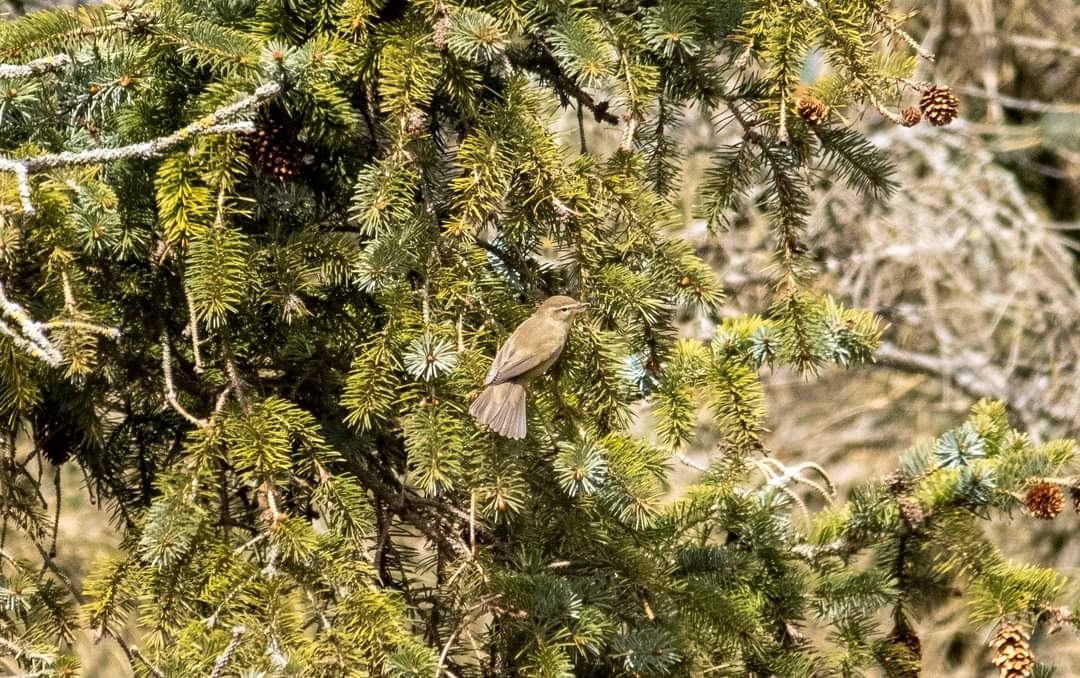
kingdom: Animalia
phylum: Chordata
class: Aves
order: Passeriformes
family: Phylloscopidae
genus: Phylloscopus
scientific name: Phylloscopus collybita
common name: Common chiffchaff
